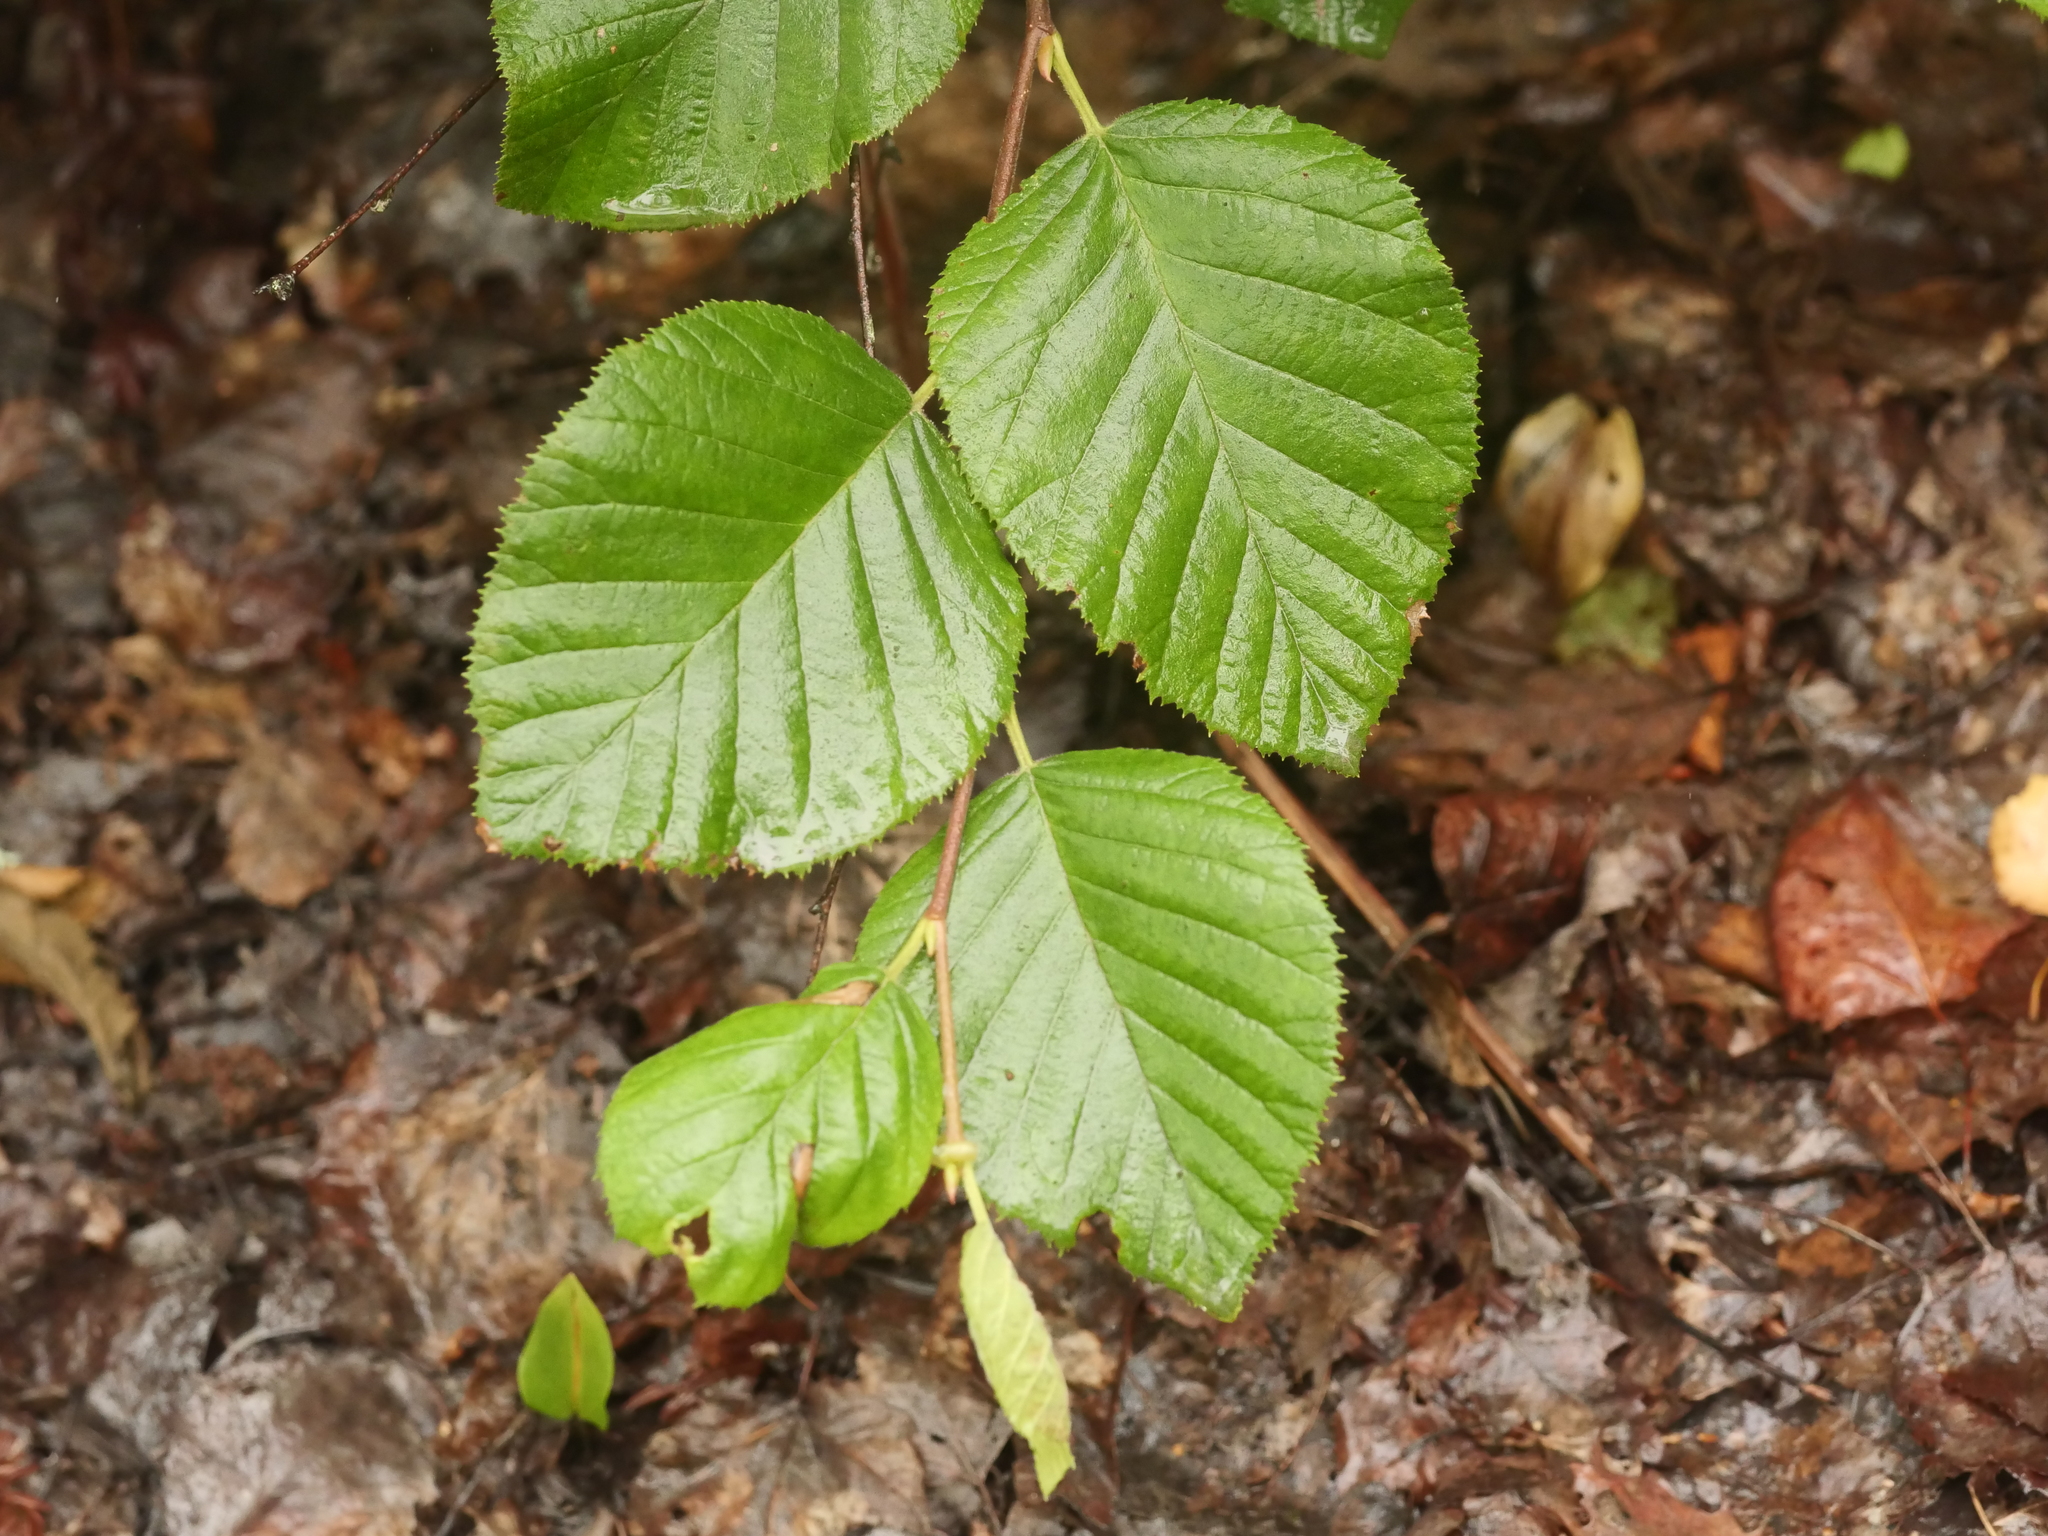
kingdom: Plantae
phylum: Tracheophyta
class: Magnoliopsida
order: Fagales
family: Betulaceae
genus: Alnus
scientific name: Alnus alnobetula
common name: Green alder
